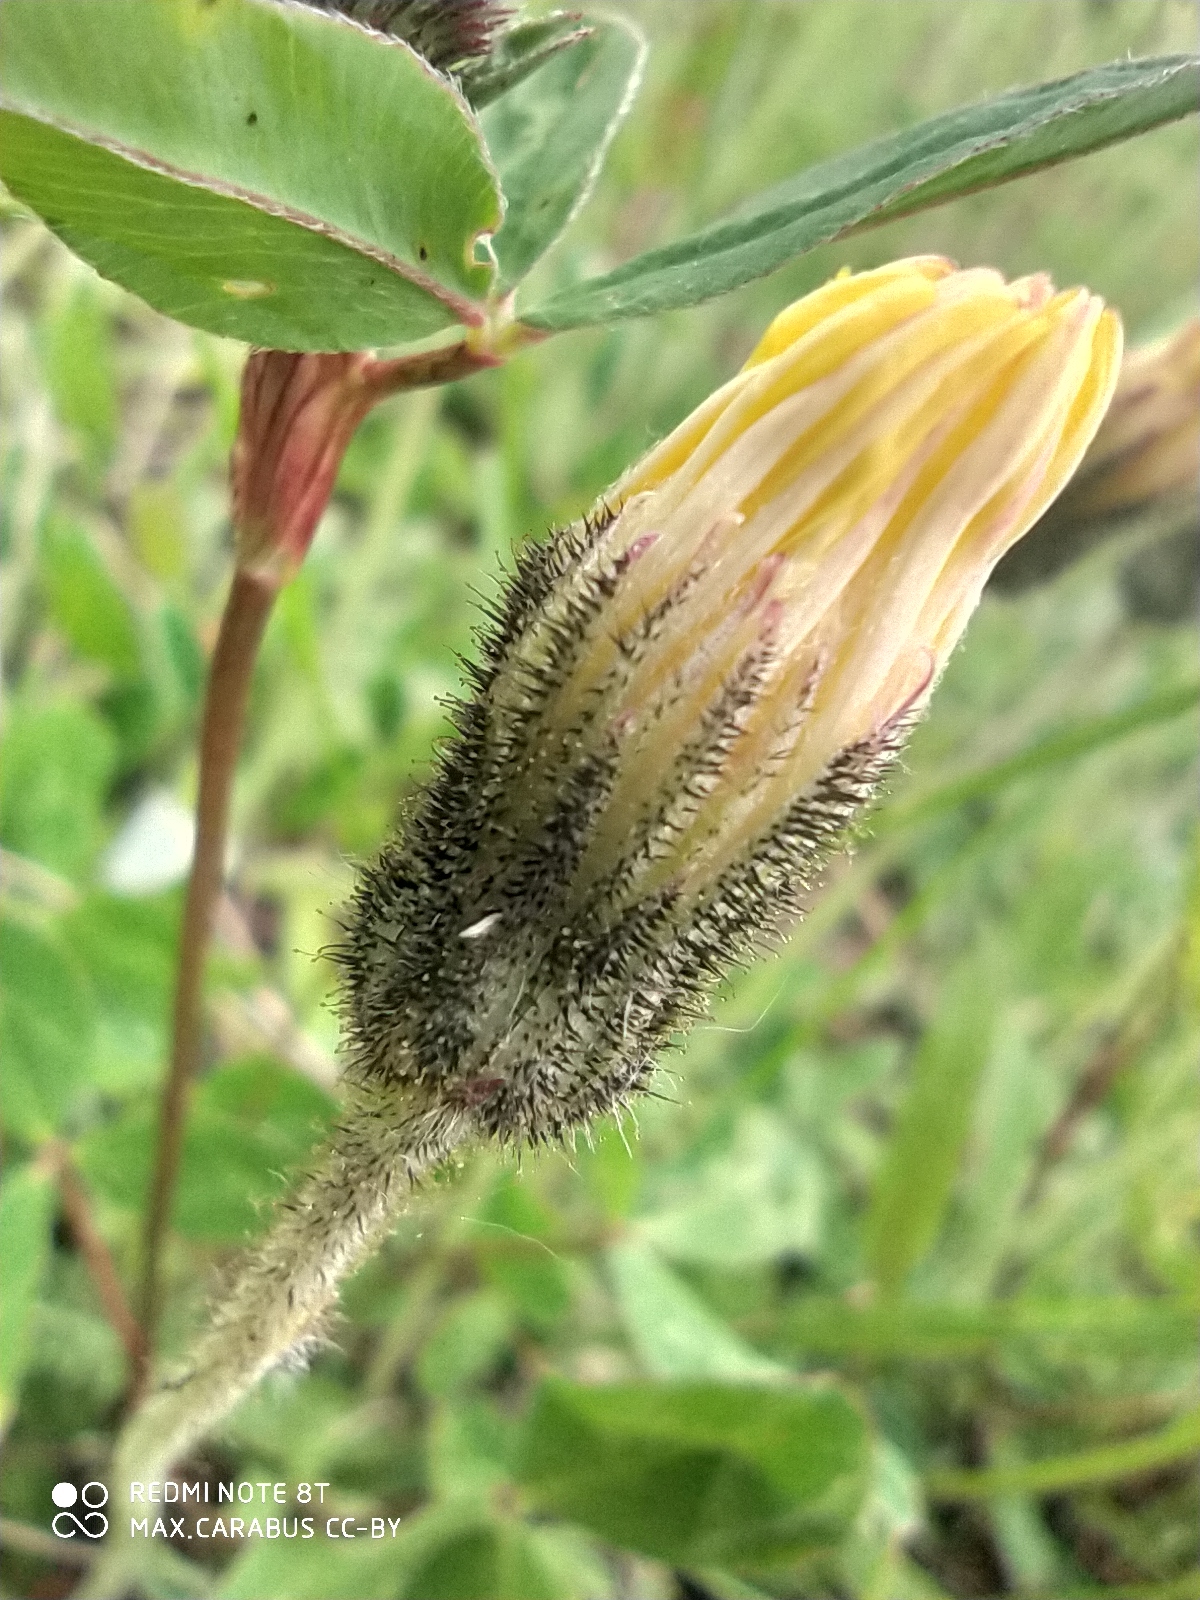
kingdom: Plantae
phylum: Tracheophyta
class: Magnoliopsida
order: Asterales
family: Asteraceae
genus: Pilosella
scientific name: Pilosella officinarum
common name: Mouse-ear hawkweed
